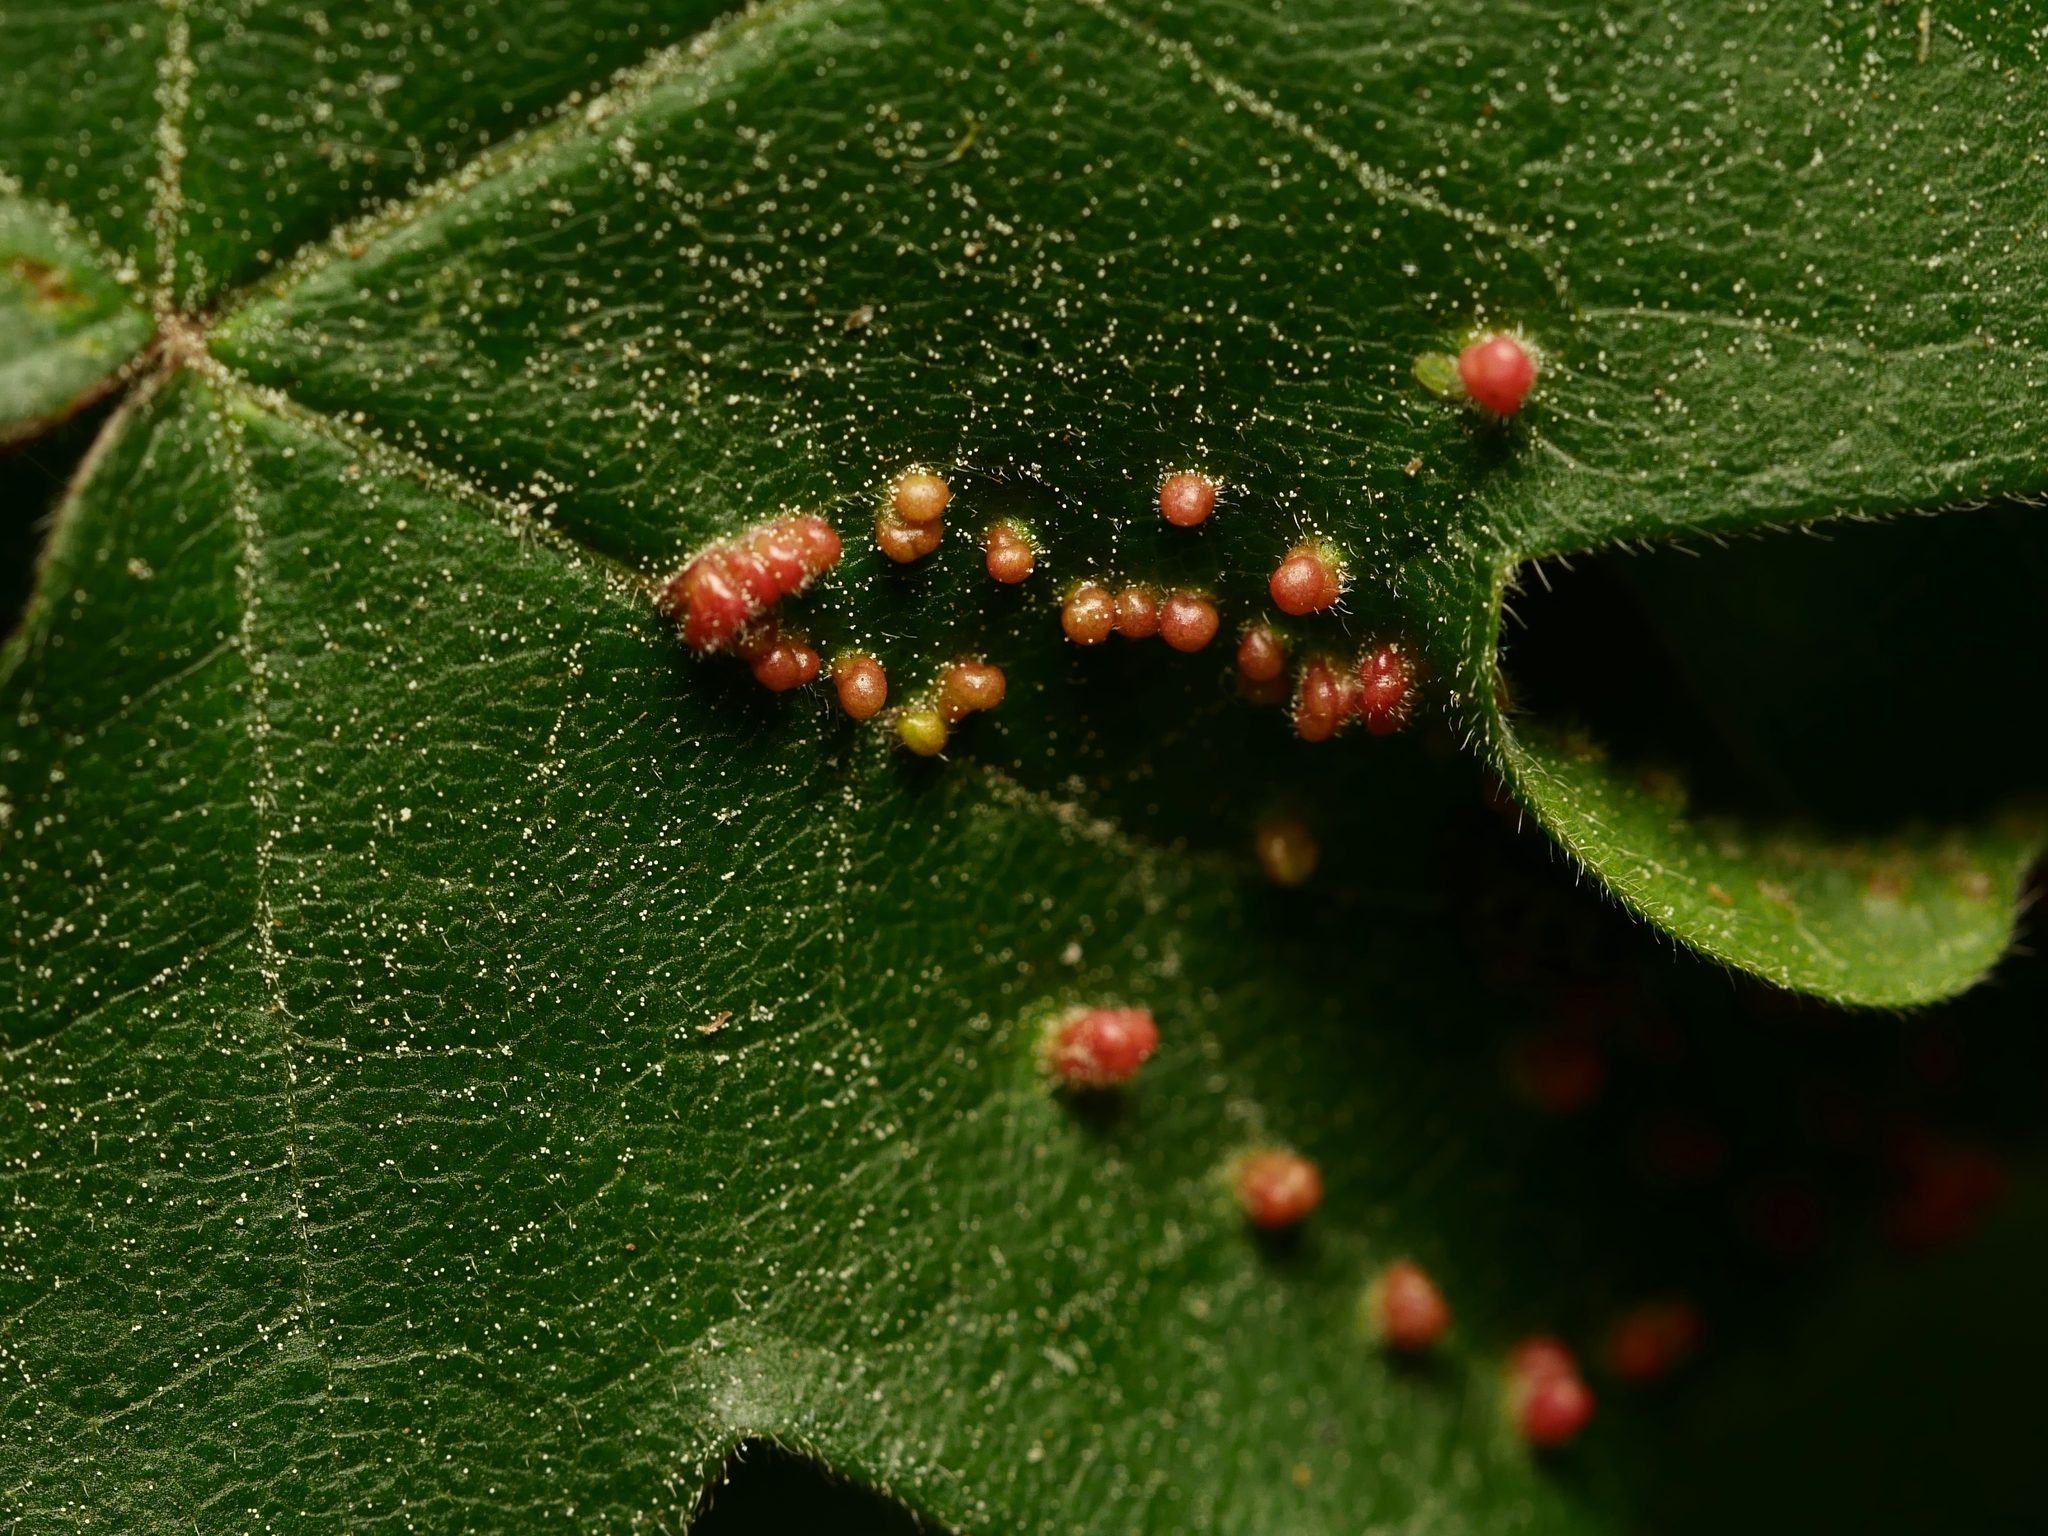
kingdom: Animalia
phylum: Arthropoda
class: Arachnida
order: Trombidiformes
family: Eriophyidae
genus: Aceria
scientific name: Aceria myriadeum
